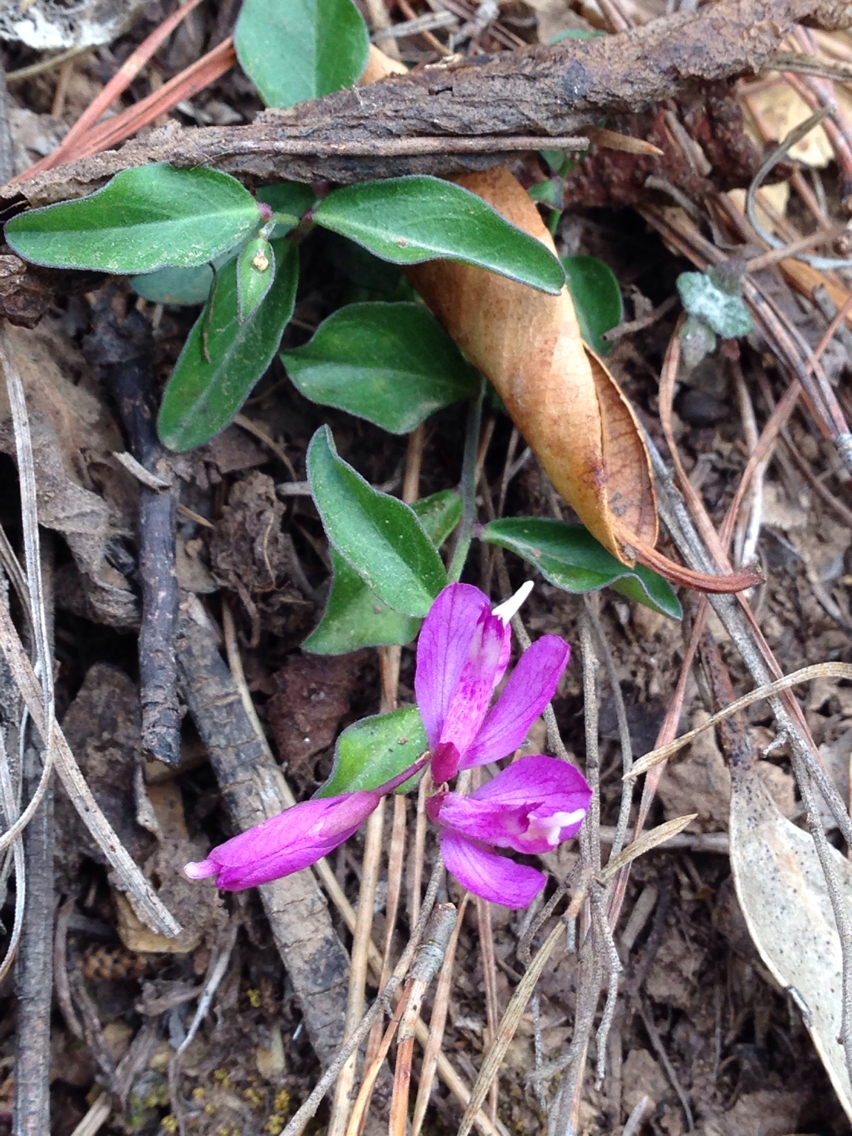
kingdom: Plantae
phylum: Tracheophyta
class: Magnoliopsida
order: Fabales
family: Polygalaceae
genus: Rhinotropis
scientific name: Rhinotropis californica
